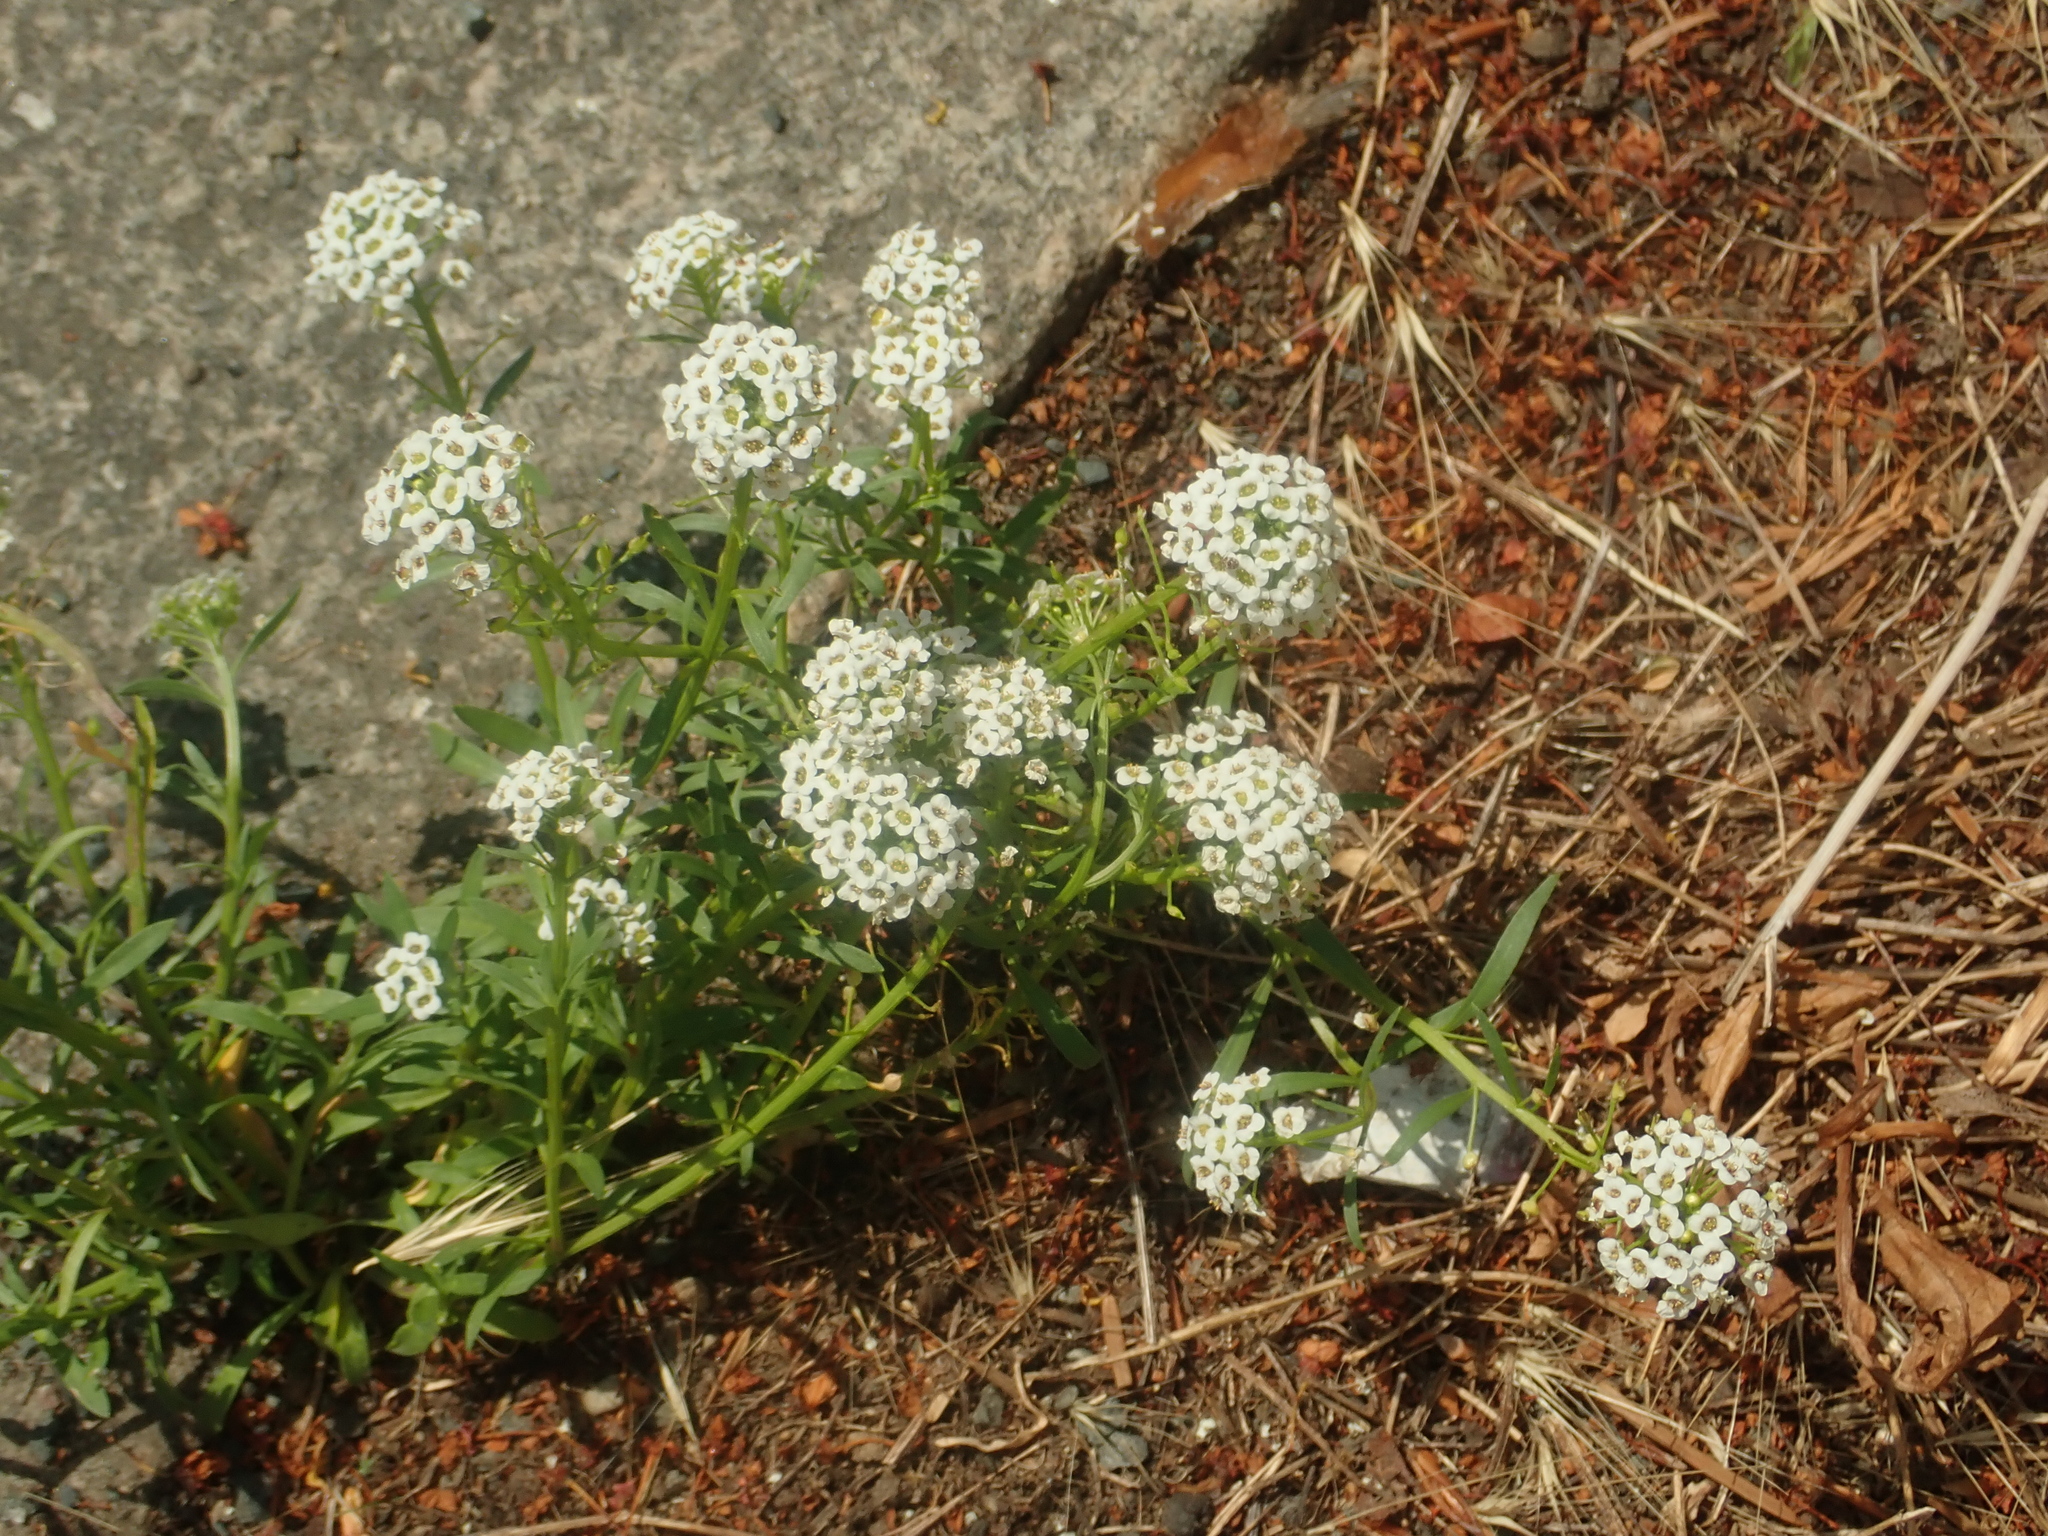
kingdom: Plantae
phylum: Tracheophyta
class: Magnoliopsida
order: Brassicales
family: Brassicaceae
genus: Lobularia
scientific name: Lobularia maritima
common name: Sweet alison
